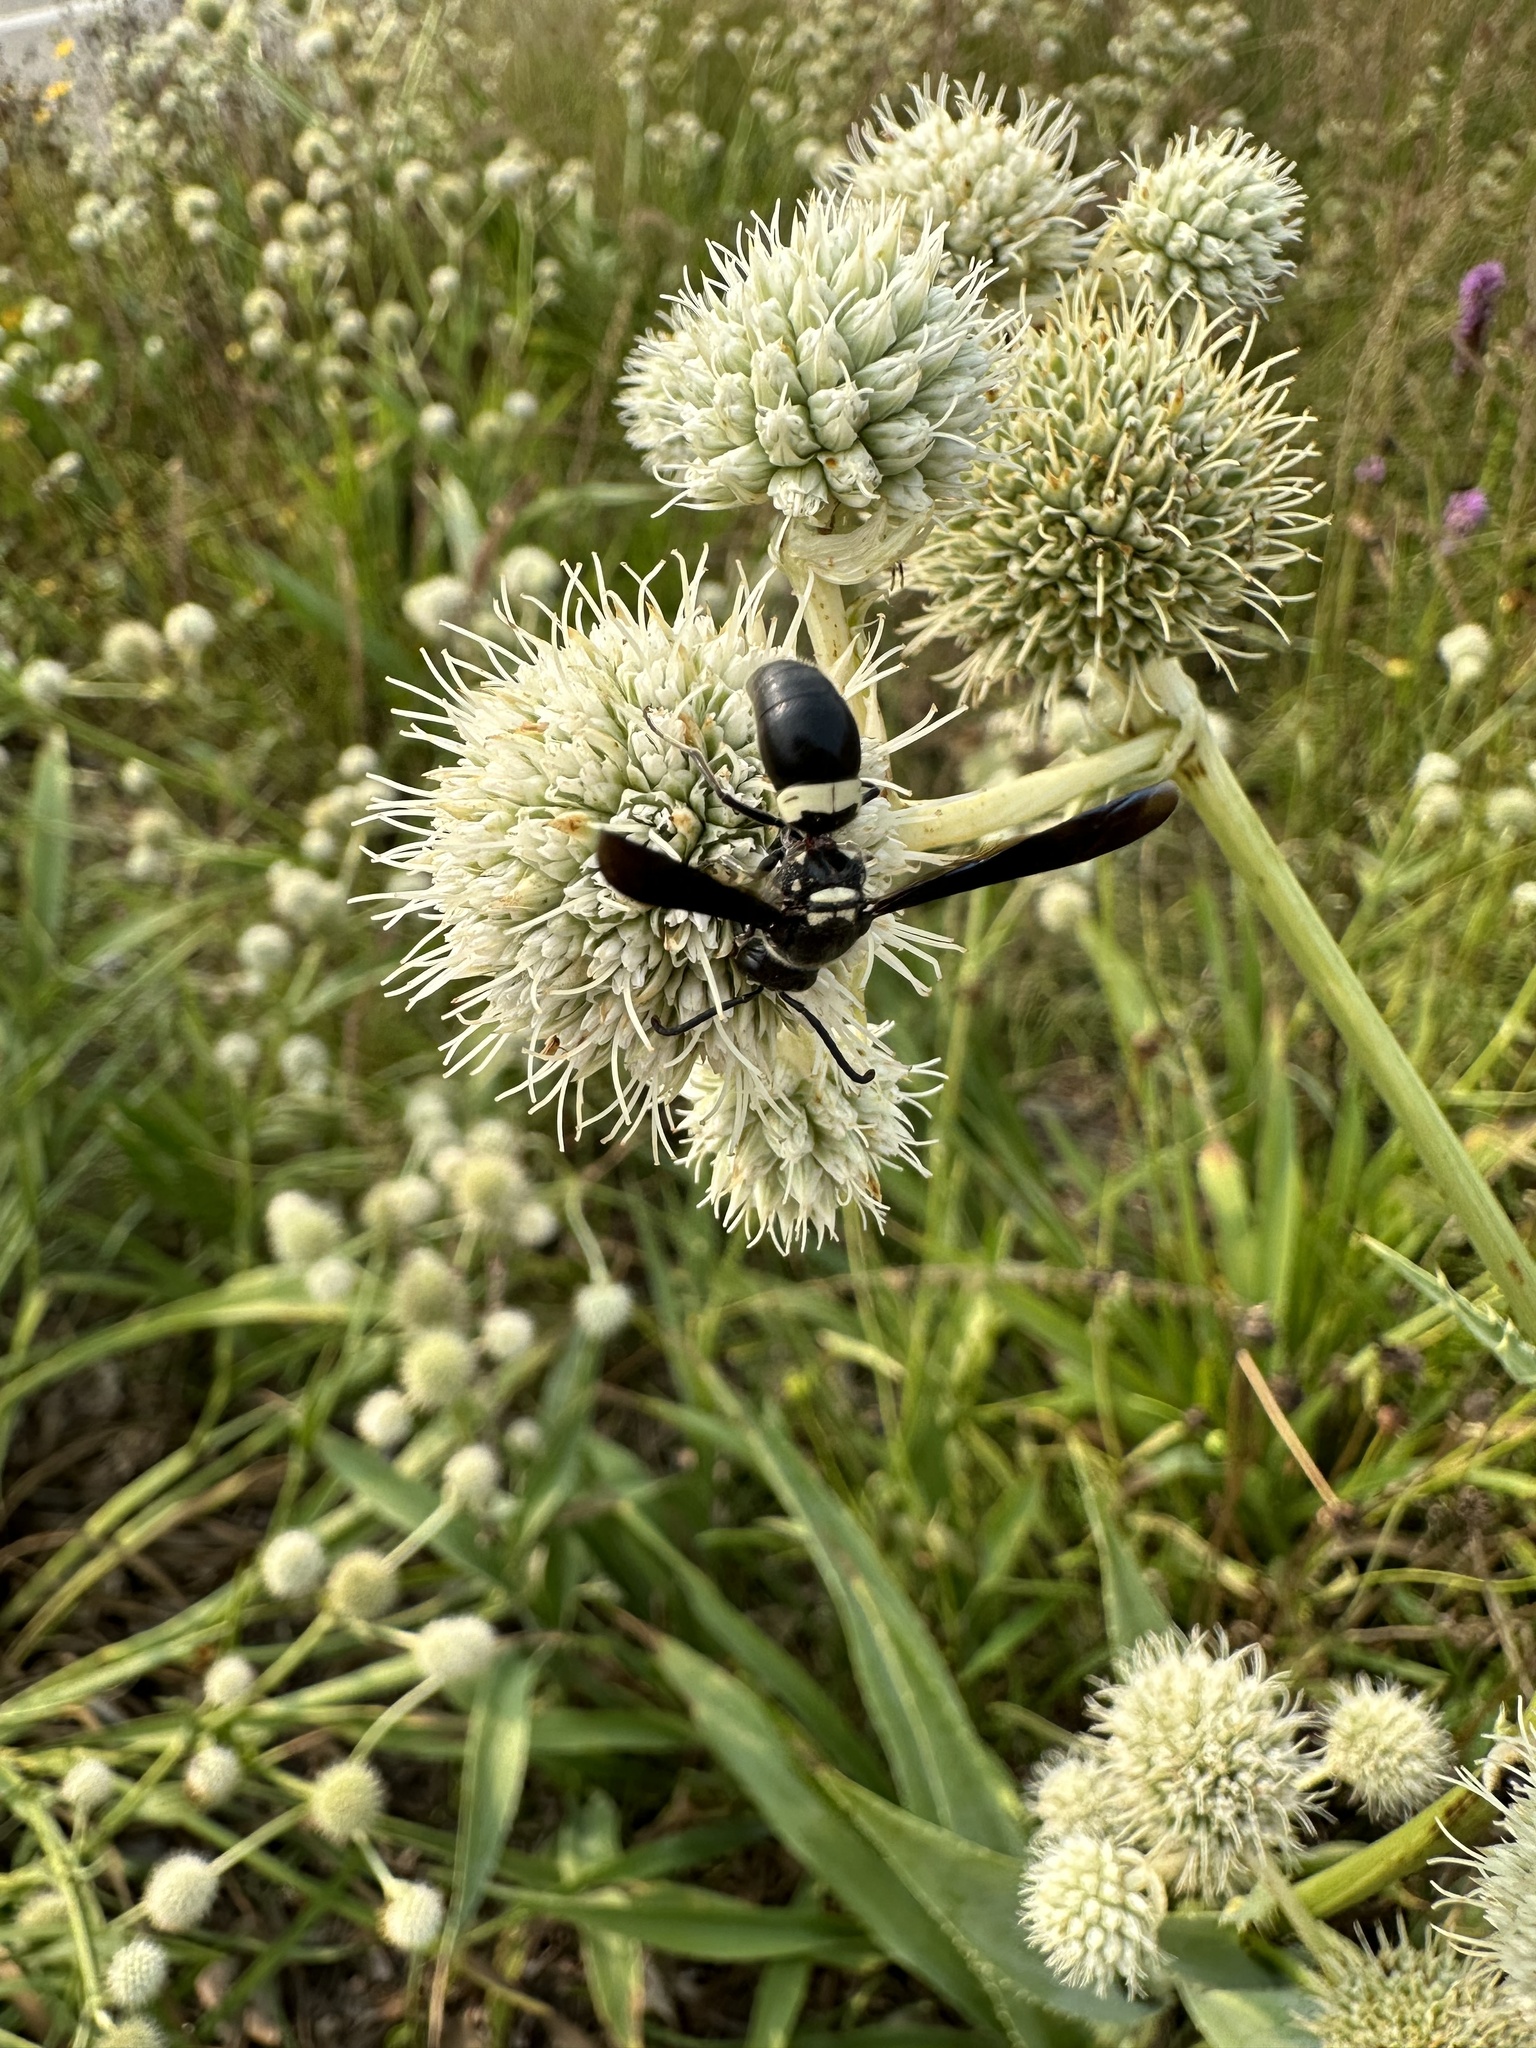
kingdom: Animalia
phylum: Arthropoda
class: Insecta
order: Hymenoptera
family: Eumenidae
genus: Monobia
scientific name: Monobia quadridens
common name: Four-toothed mason wasp
